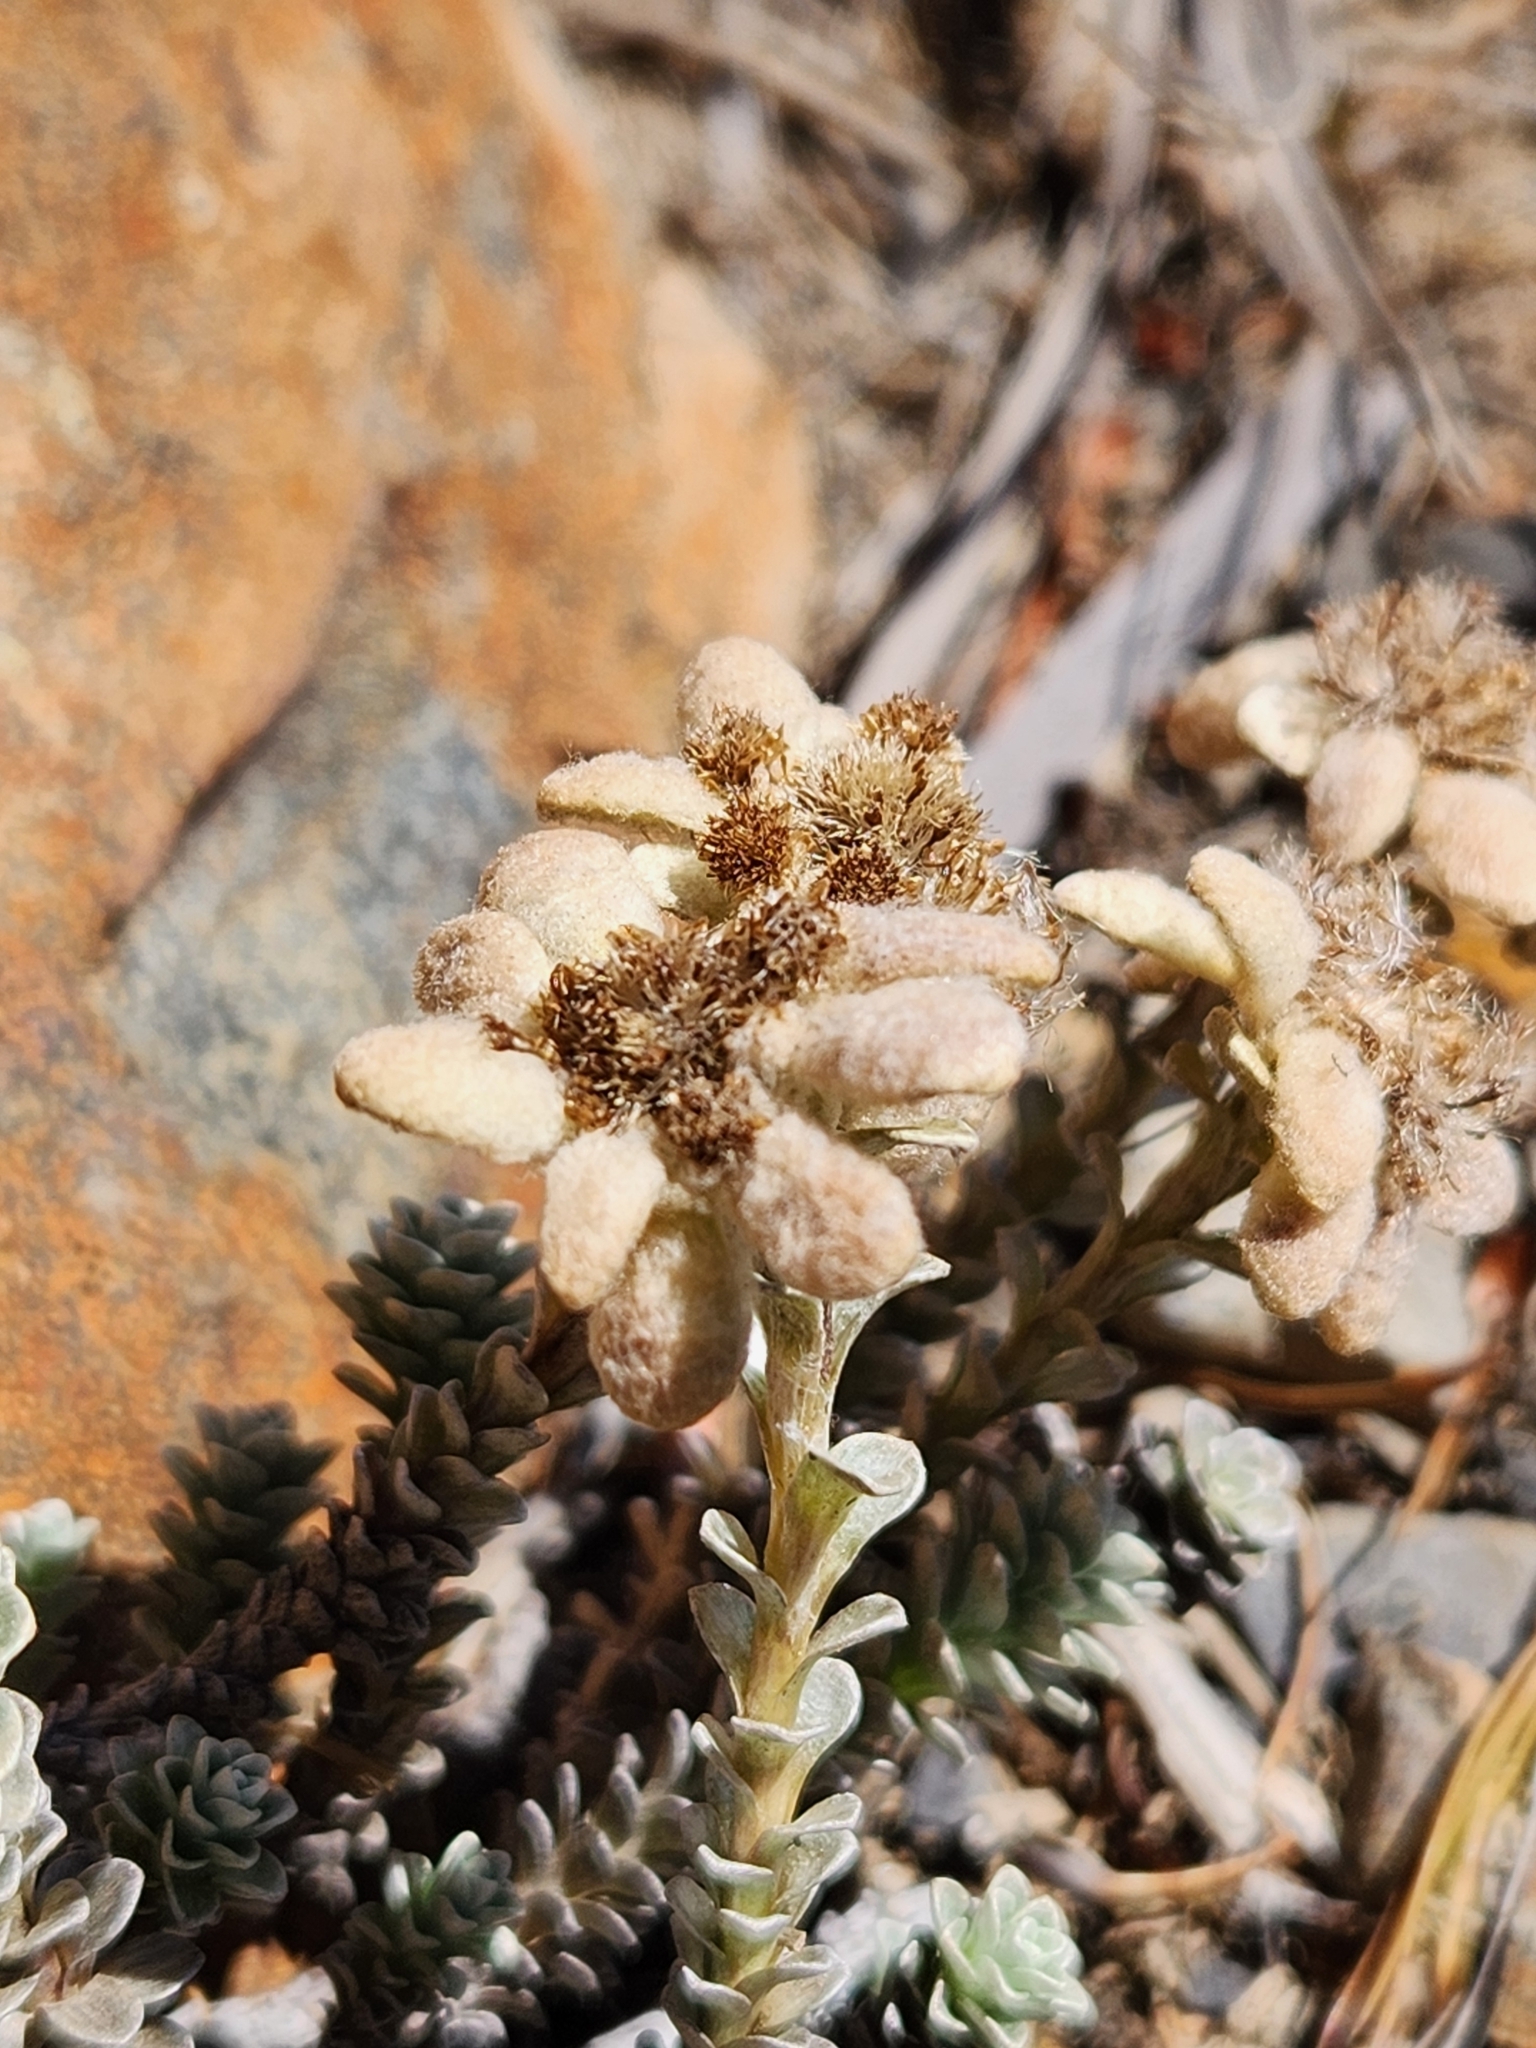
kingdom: Plantae
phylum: Tracheophyta
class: Magnoliopsida
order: Asterales
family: Asteraceae
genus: Leucogenes
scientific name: Leucogenes grandiceps
